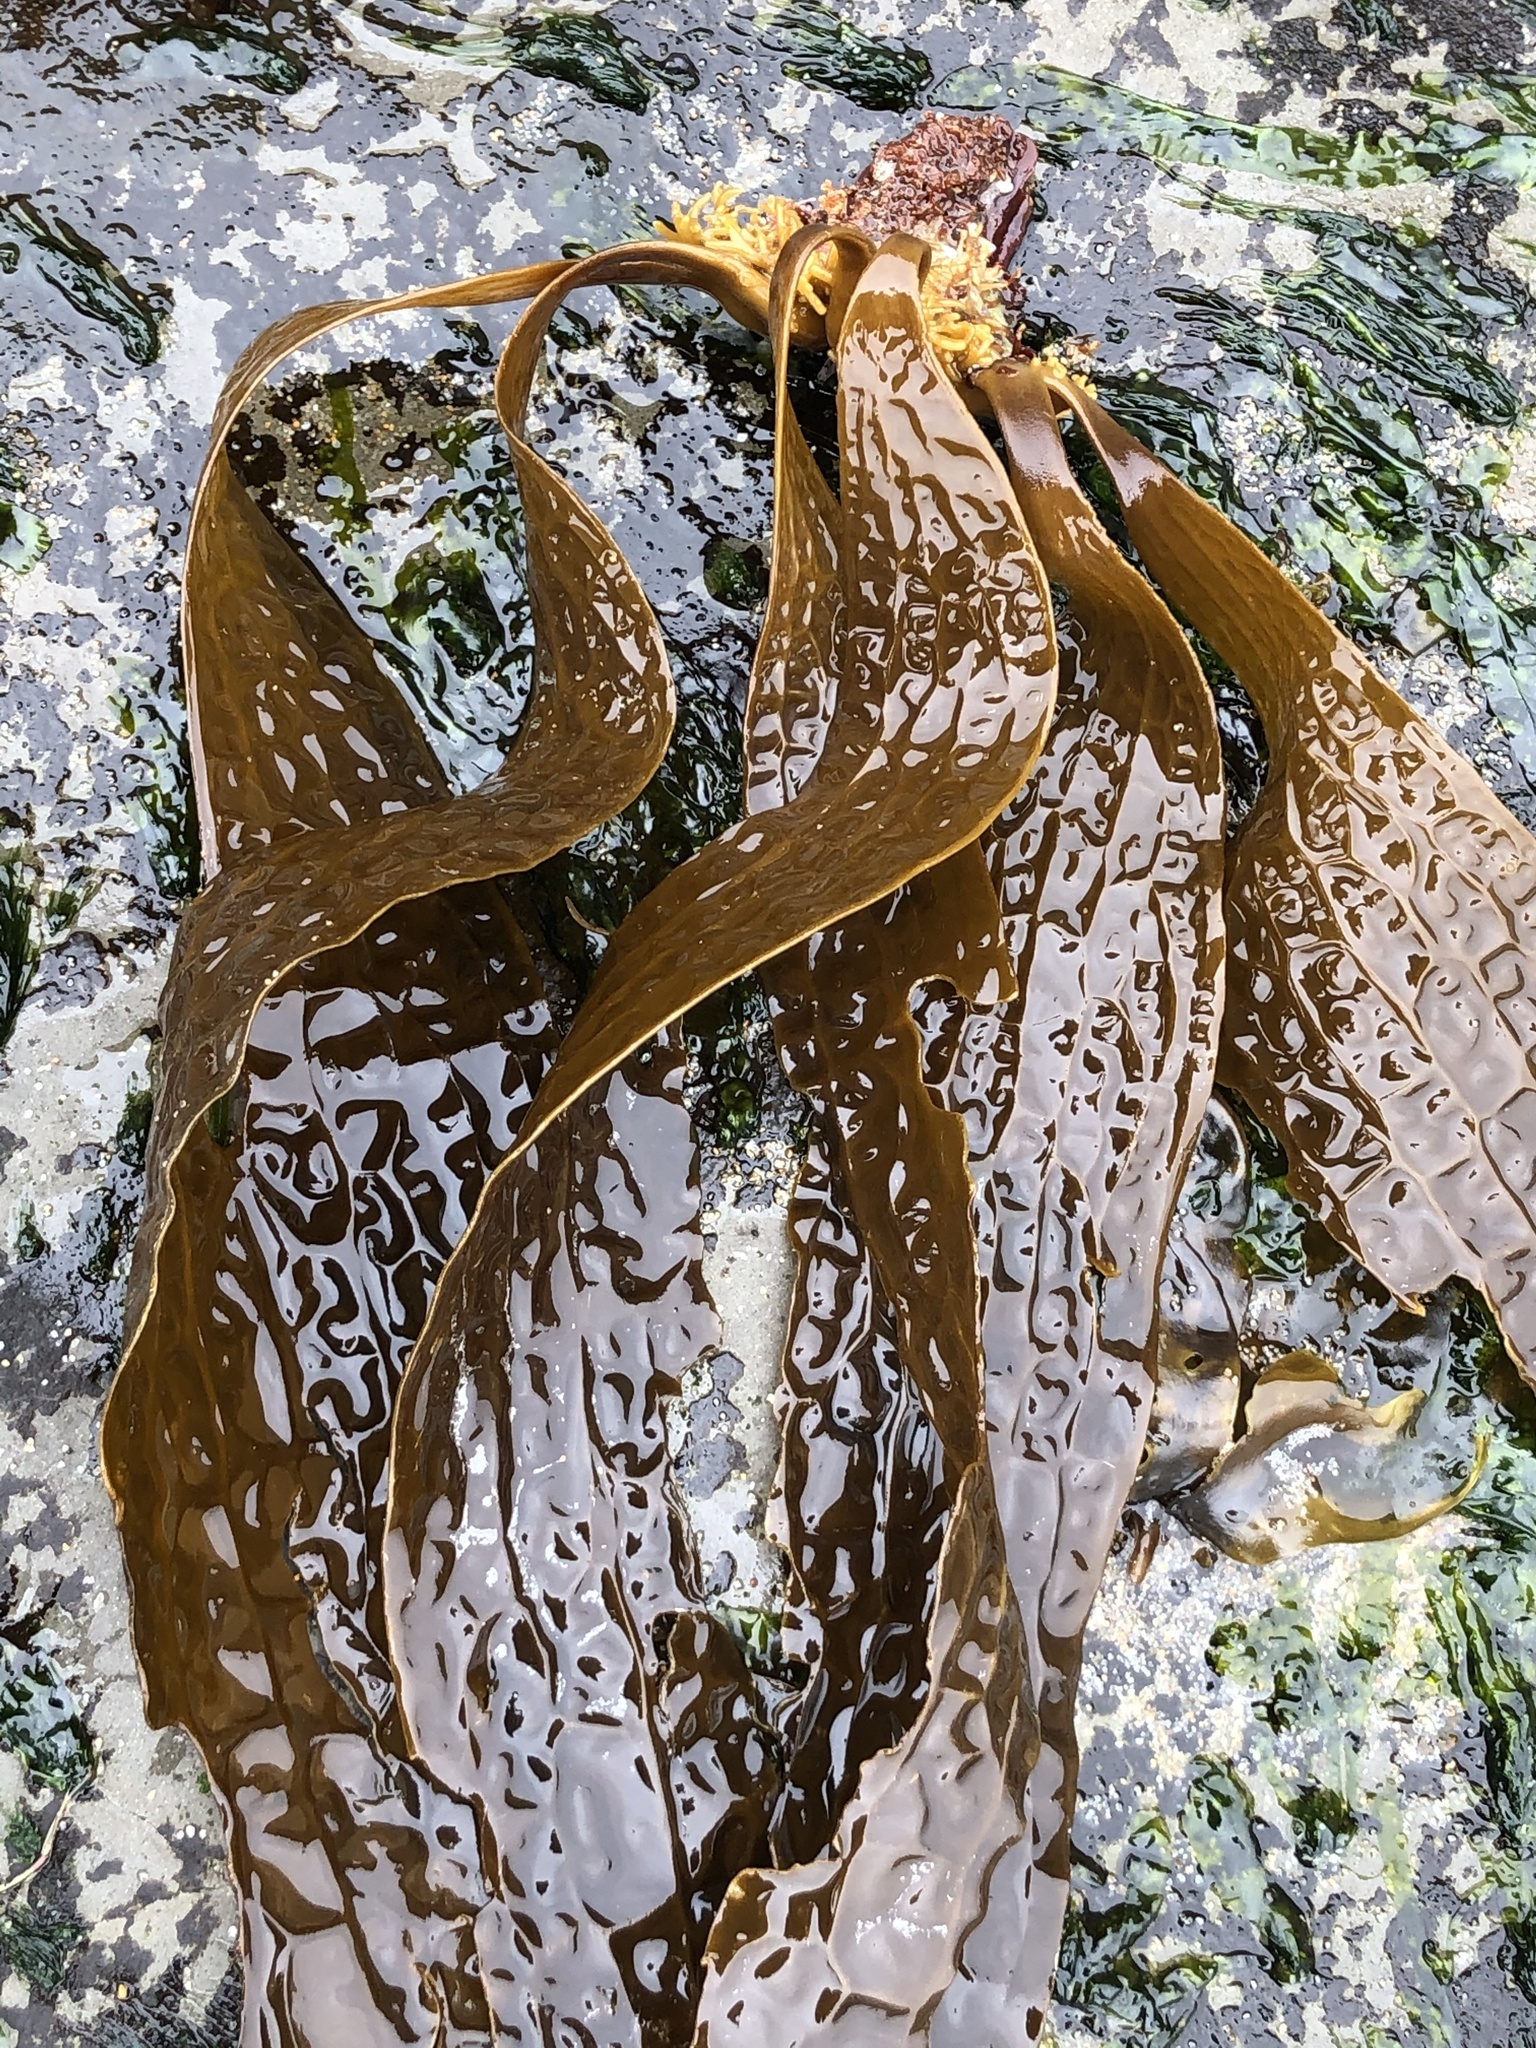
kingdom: Chromista
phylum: Ochrophyta
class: Phaeophyceae
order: Laminariales
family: Costariaceae
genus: Dictyoneurum
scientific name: Dictyoneurum californicum
